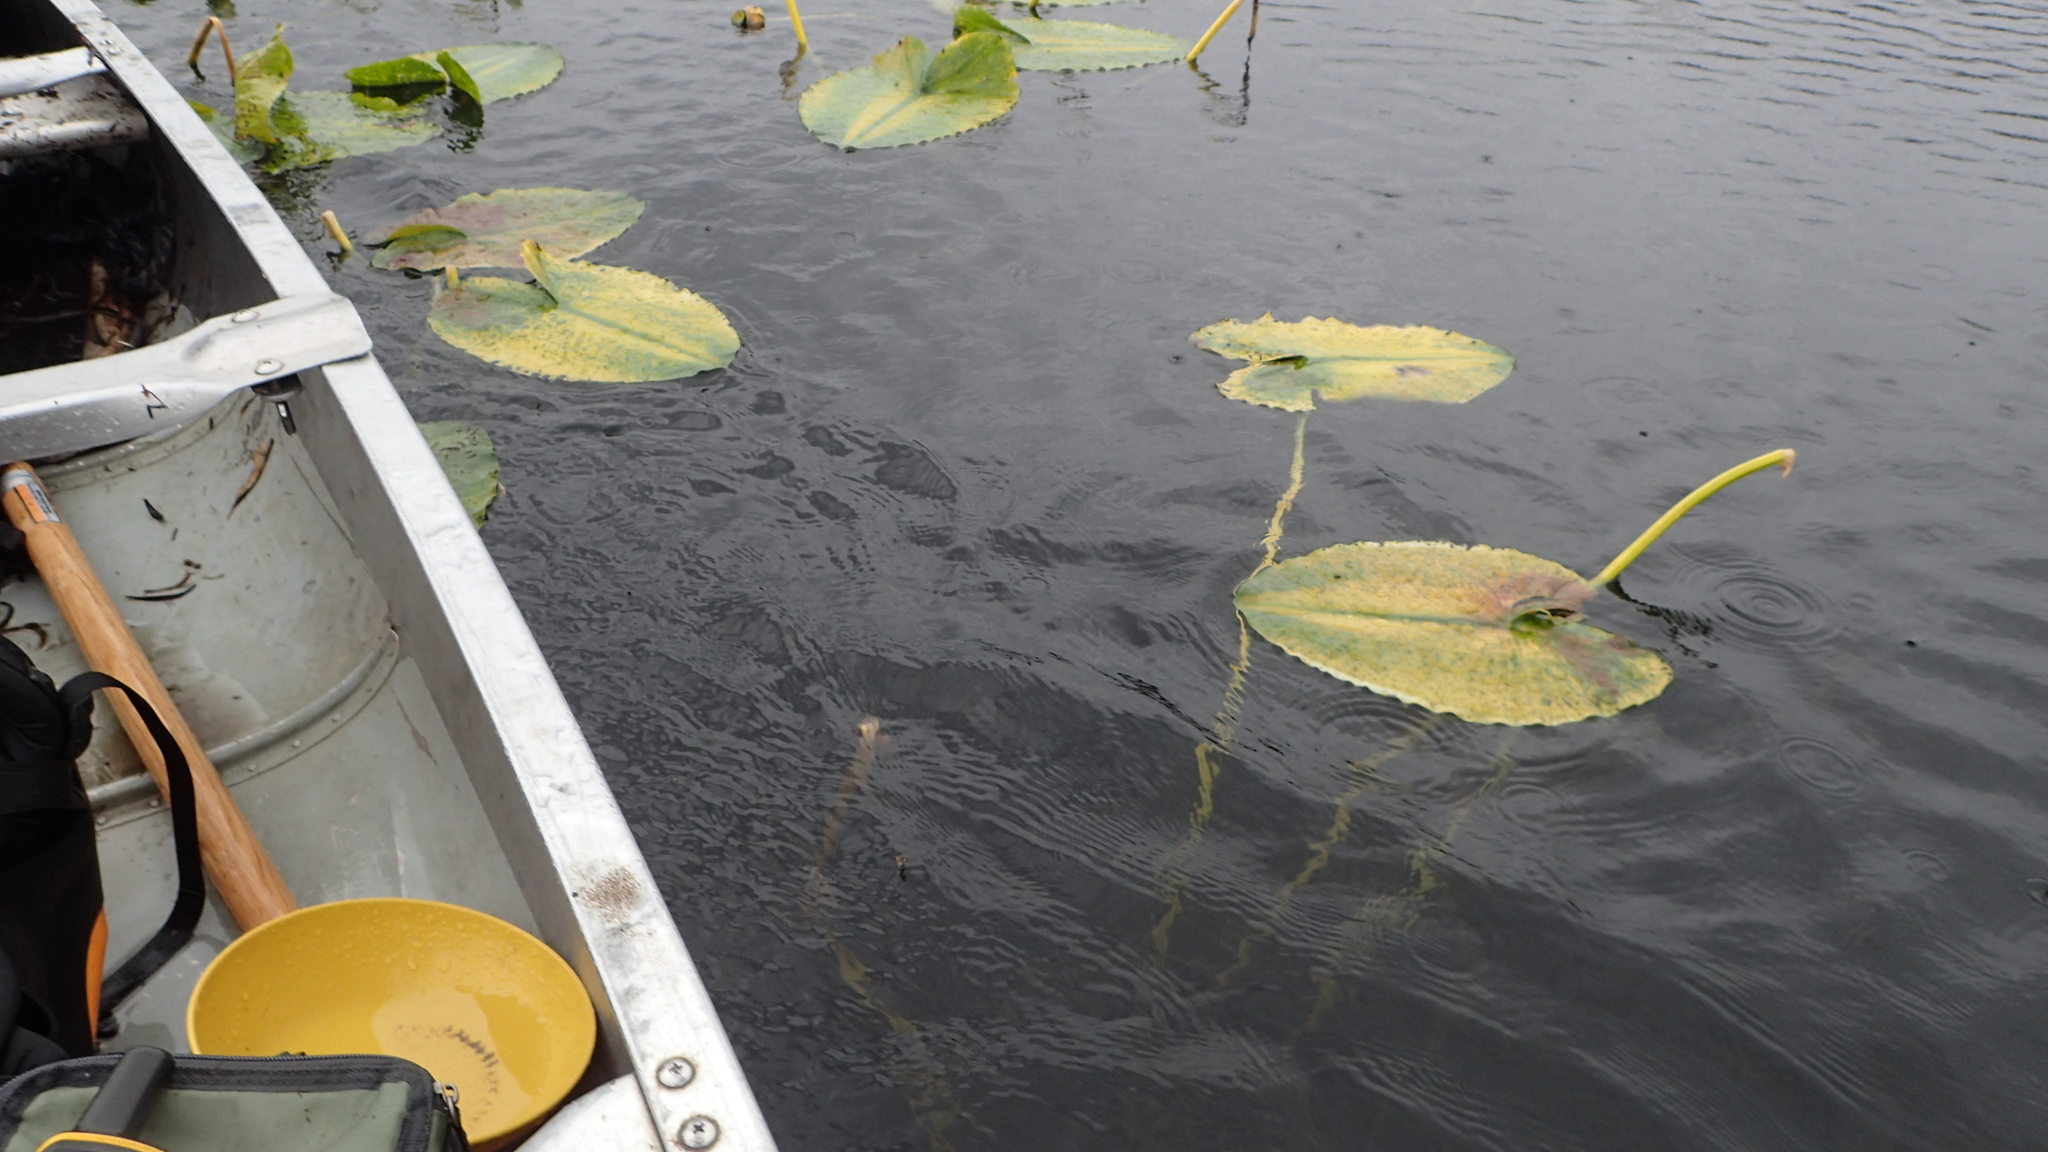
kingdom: Plantae
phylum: Tracheophyta
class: Magnoliopsida
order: Nymphaeales
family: Nymphaeaceae
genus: Nuphar
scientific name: Nuphar polysepala
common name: Rocky mountain cow-lily
